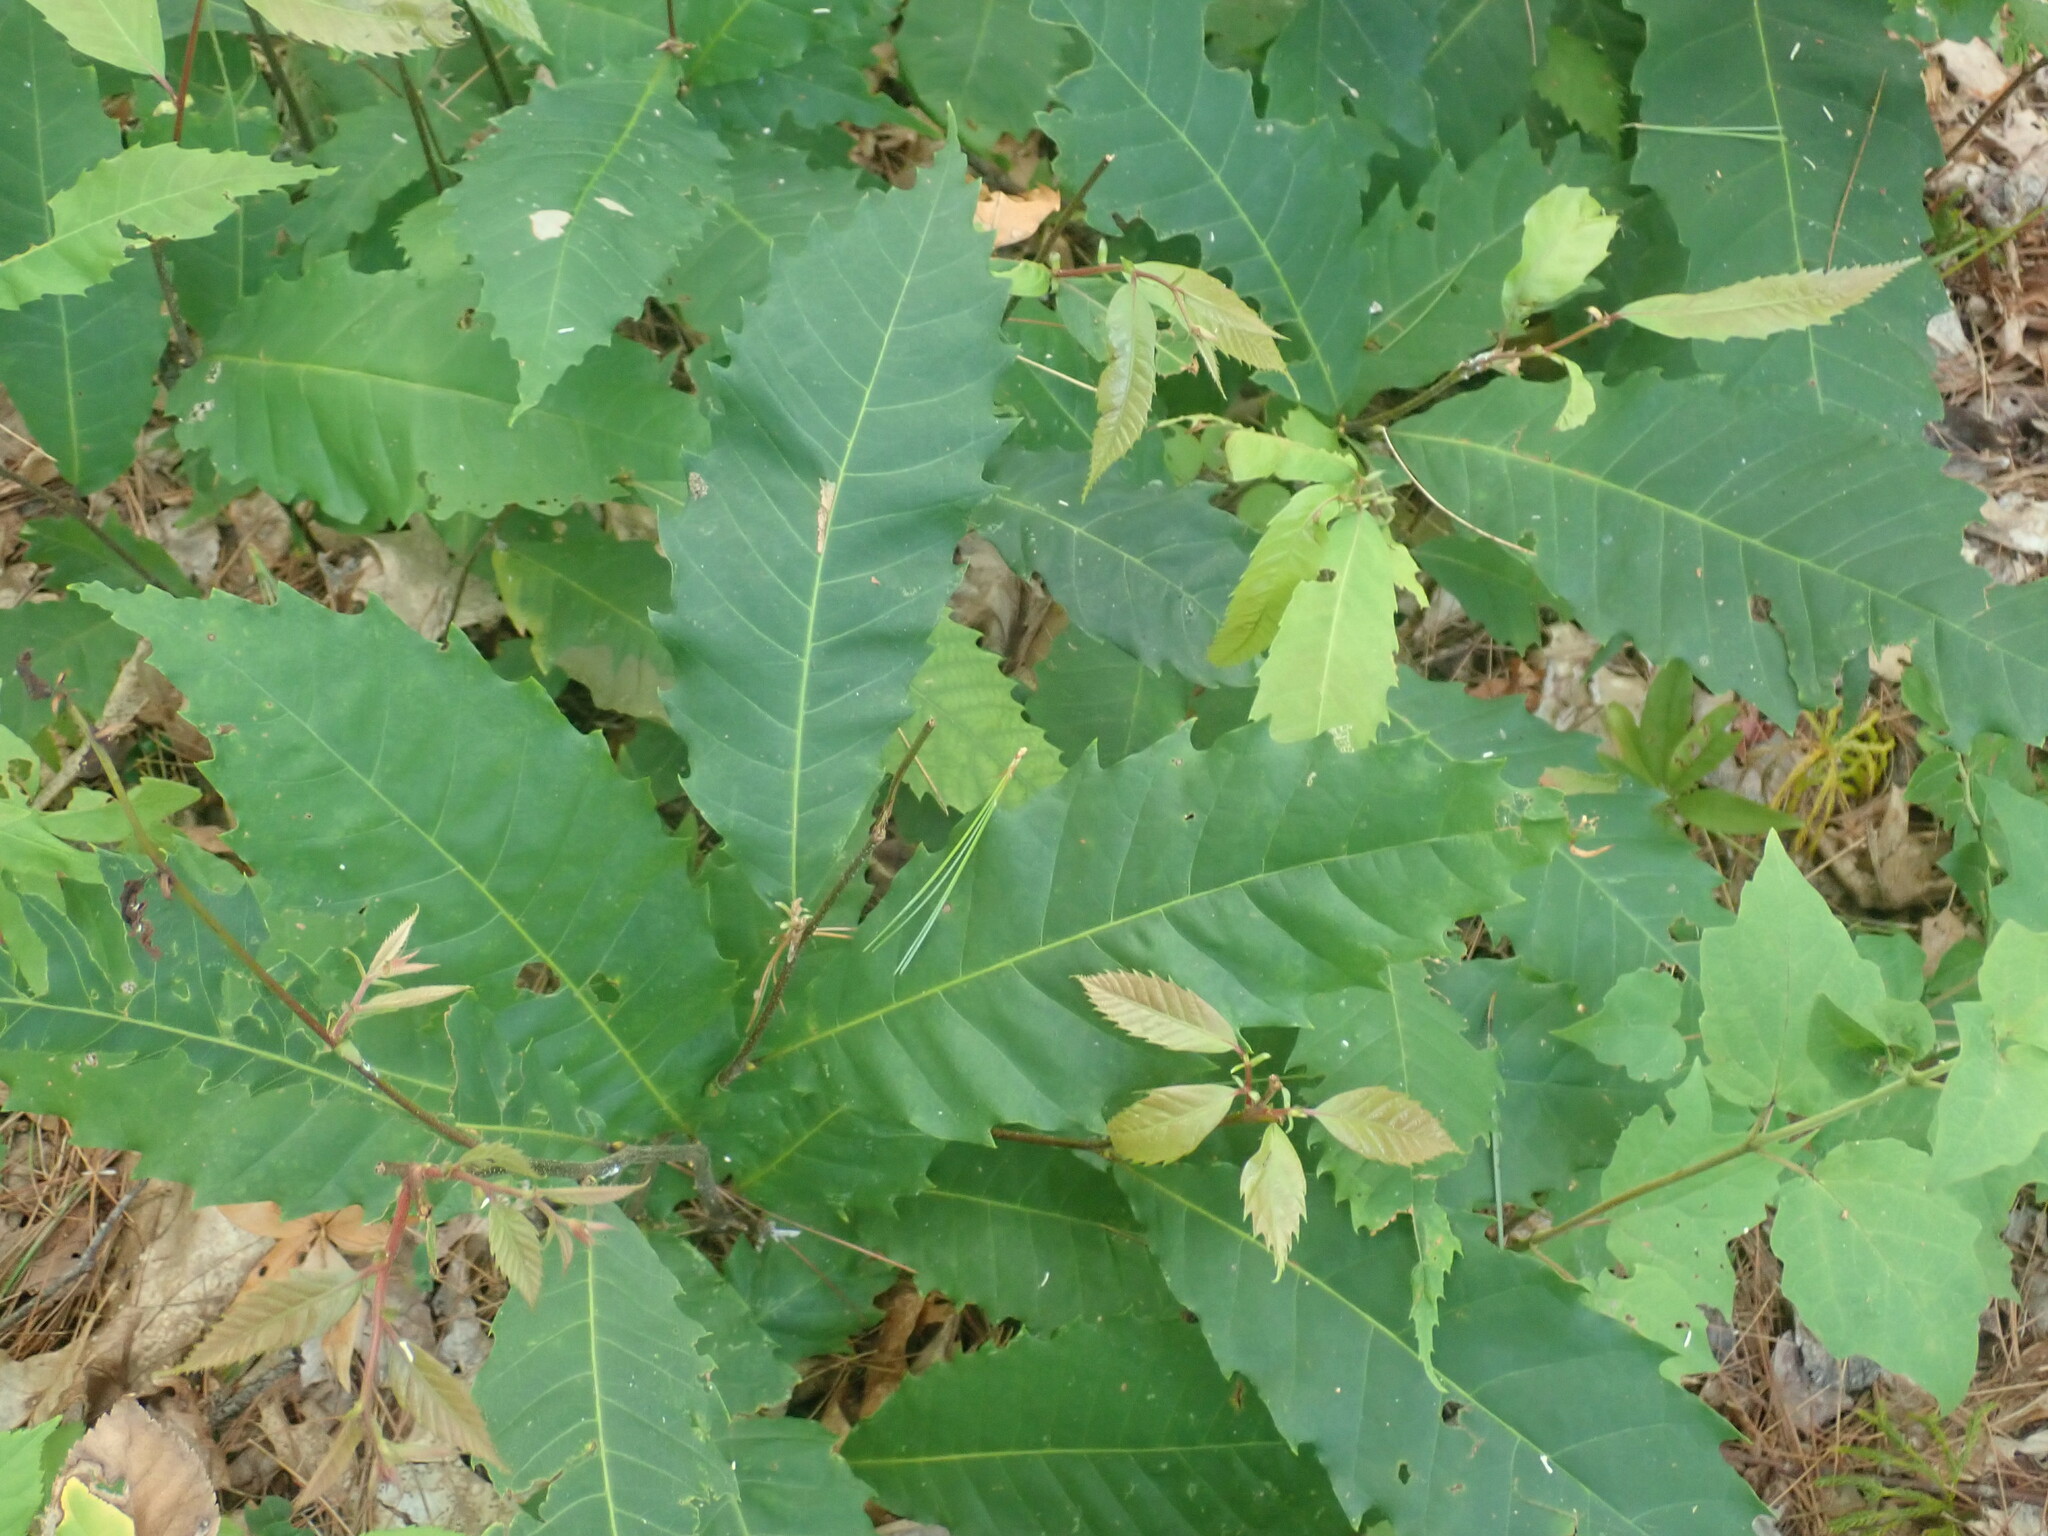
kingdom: Plantae
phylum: Tracheophyta
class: Magnoliopsida
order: Fagales
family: Fagaceae
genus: Castanea
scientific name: Castanea dentata
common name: American chestnut
